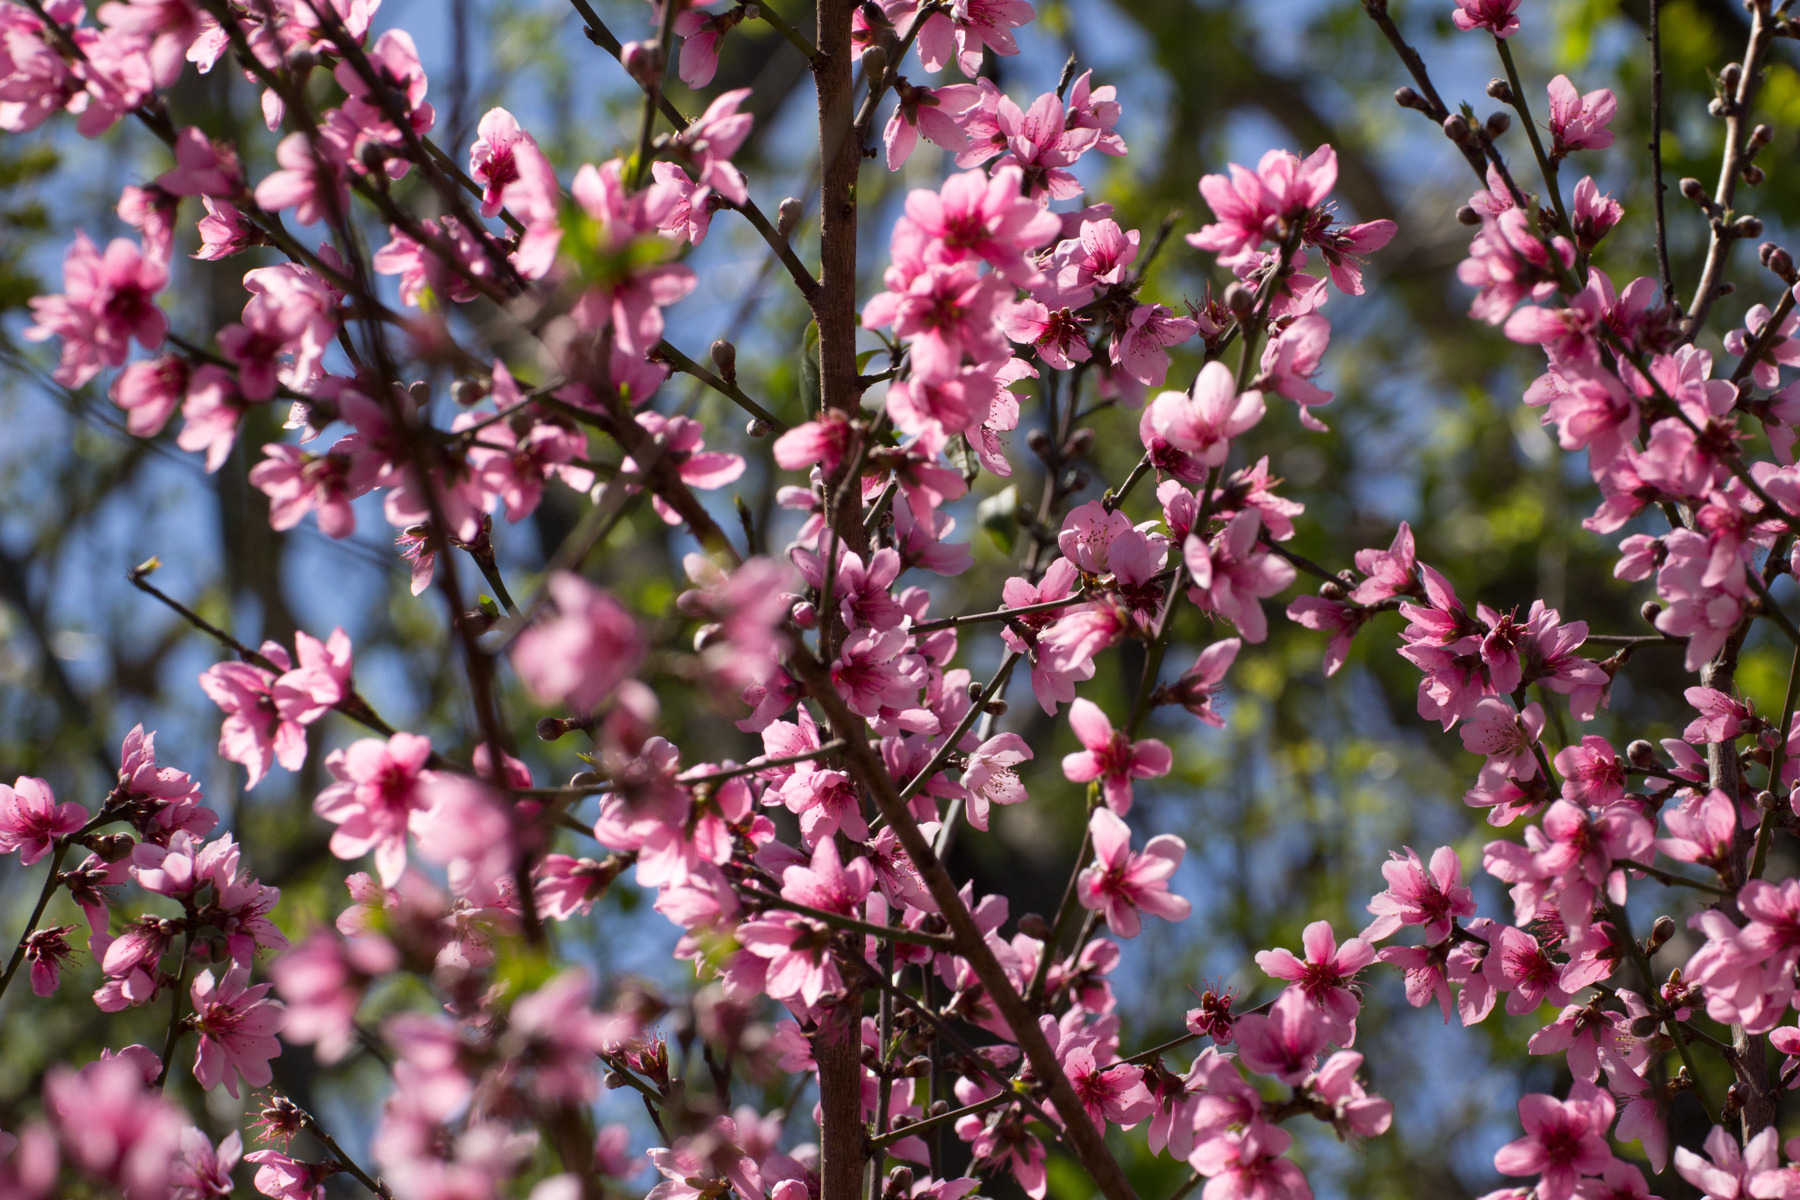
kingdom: Plantae
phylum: Tracheophyta
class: Magnoliopsida
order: Rosales
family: Rosaceae
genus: Prunus
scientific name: Prunus persica
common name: Peach
